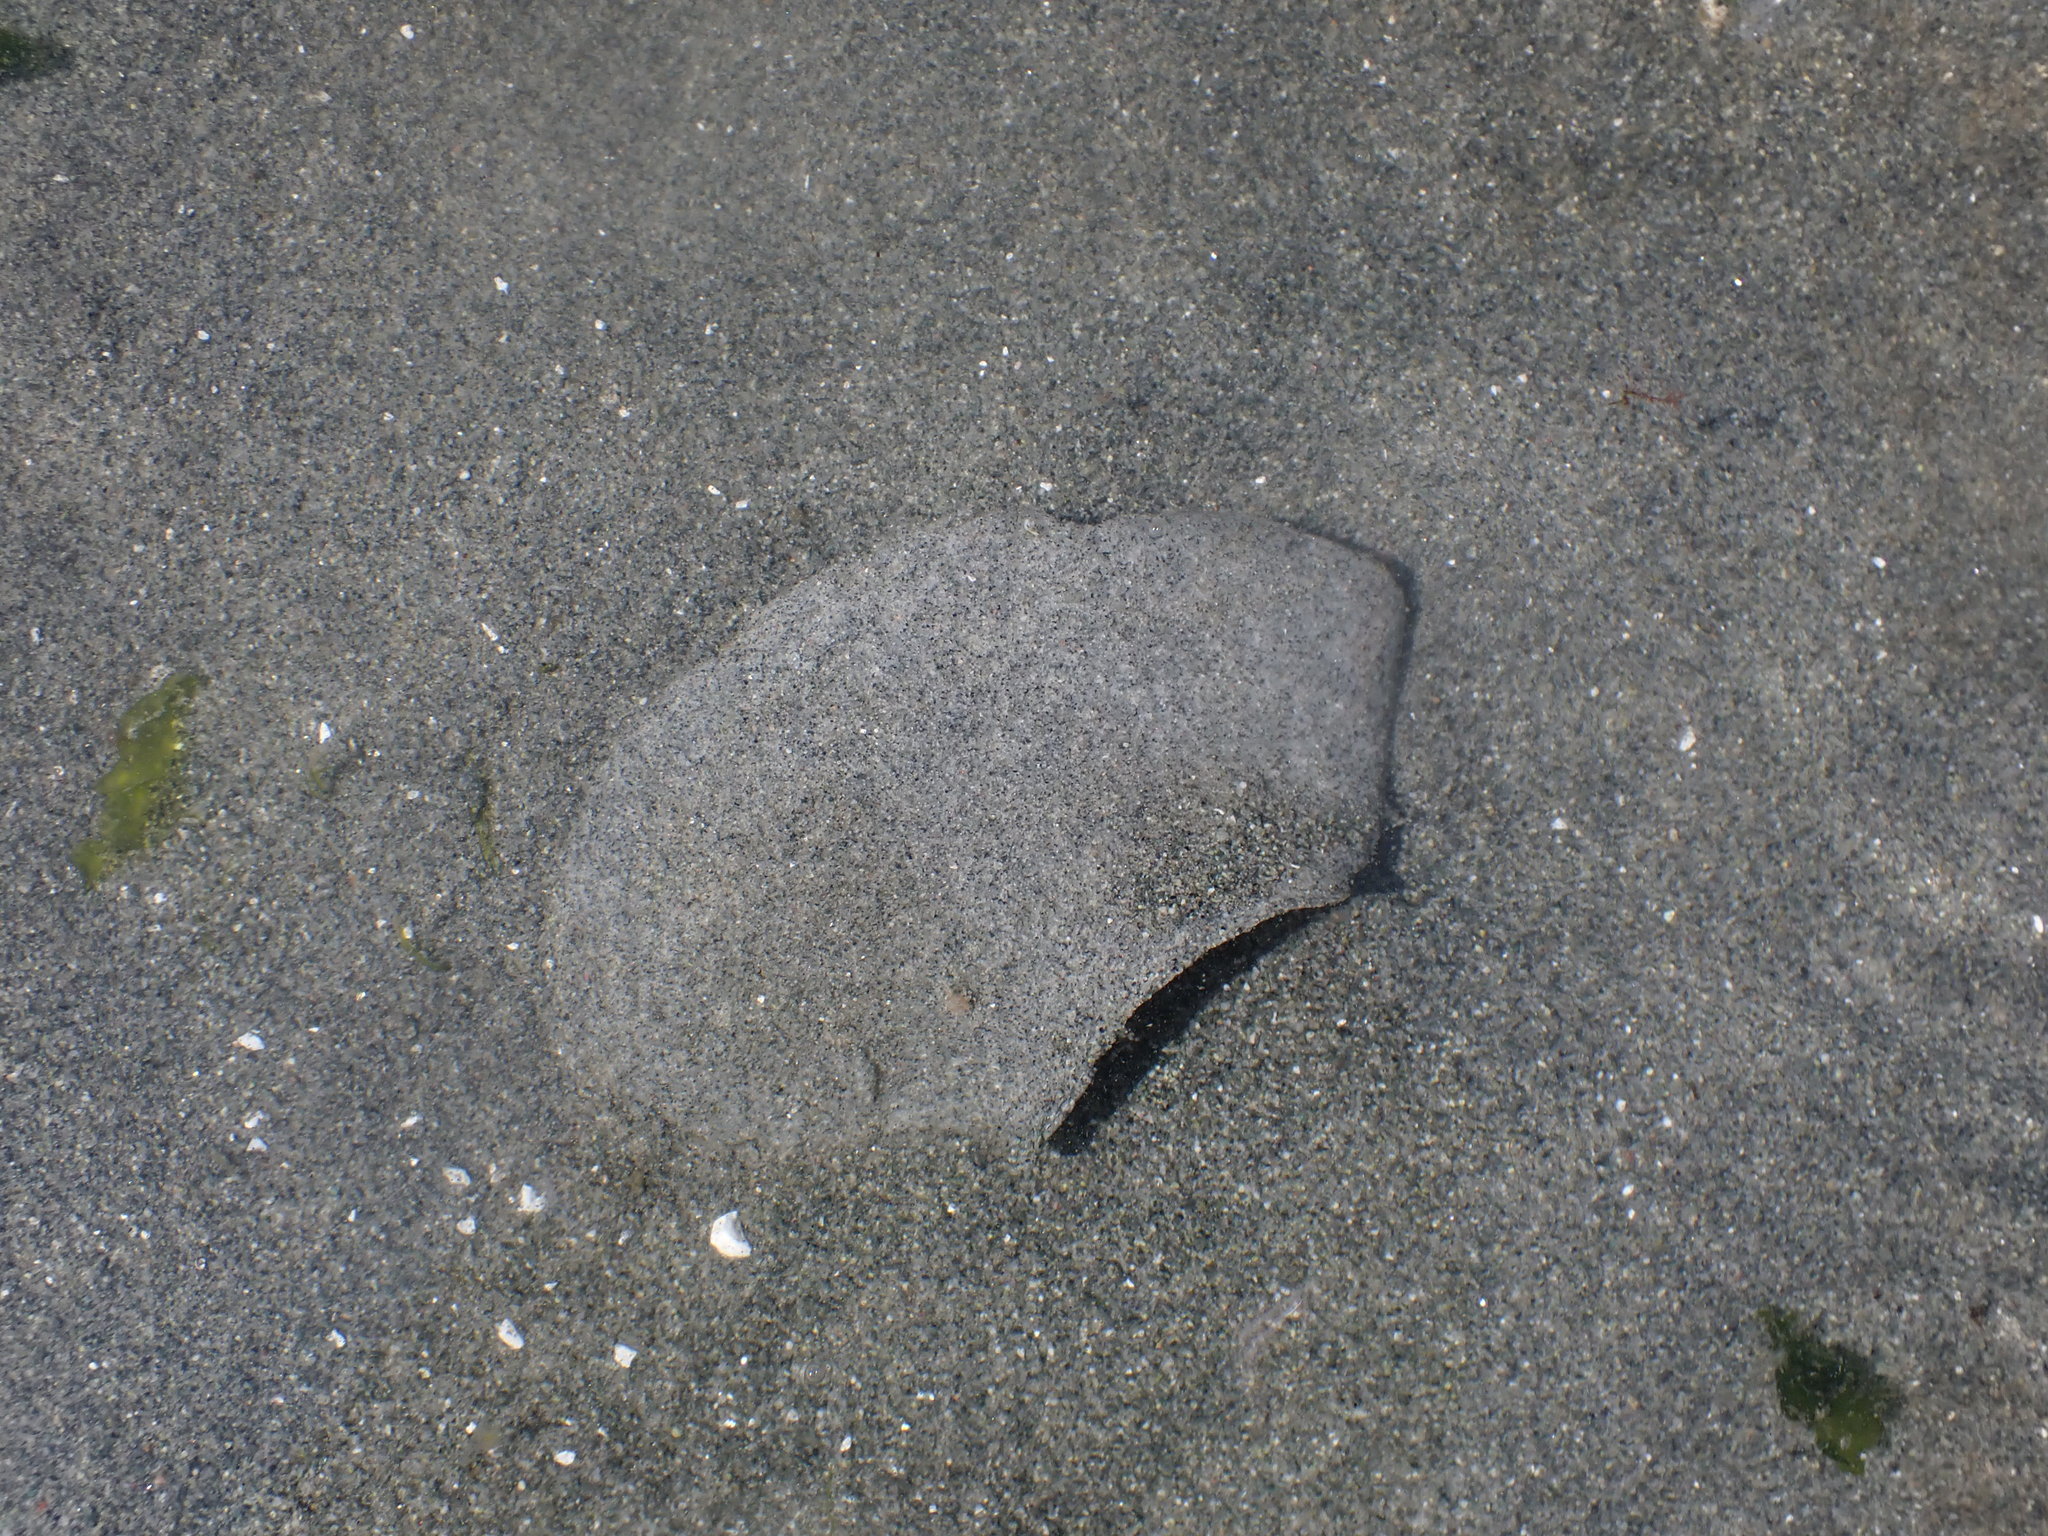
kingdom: Animalia
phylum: Mollusca
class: Gastropoda
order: Littorinimorpha
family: Naticidae
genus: Neverita
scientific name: Neverita lewisii
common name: Lewis' moonsnail
